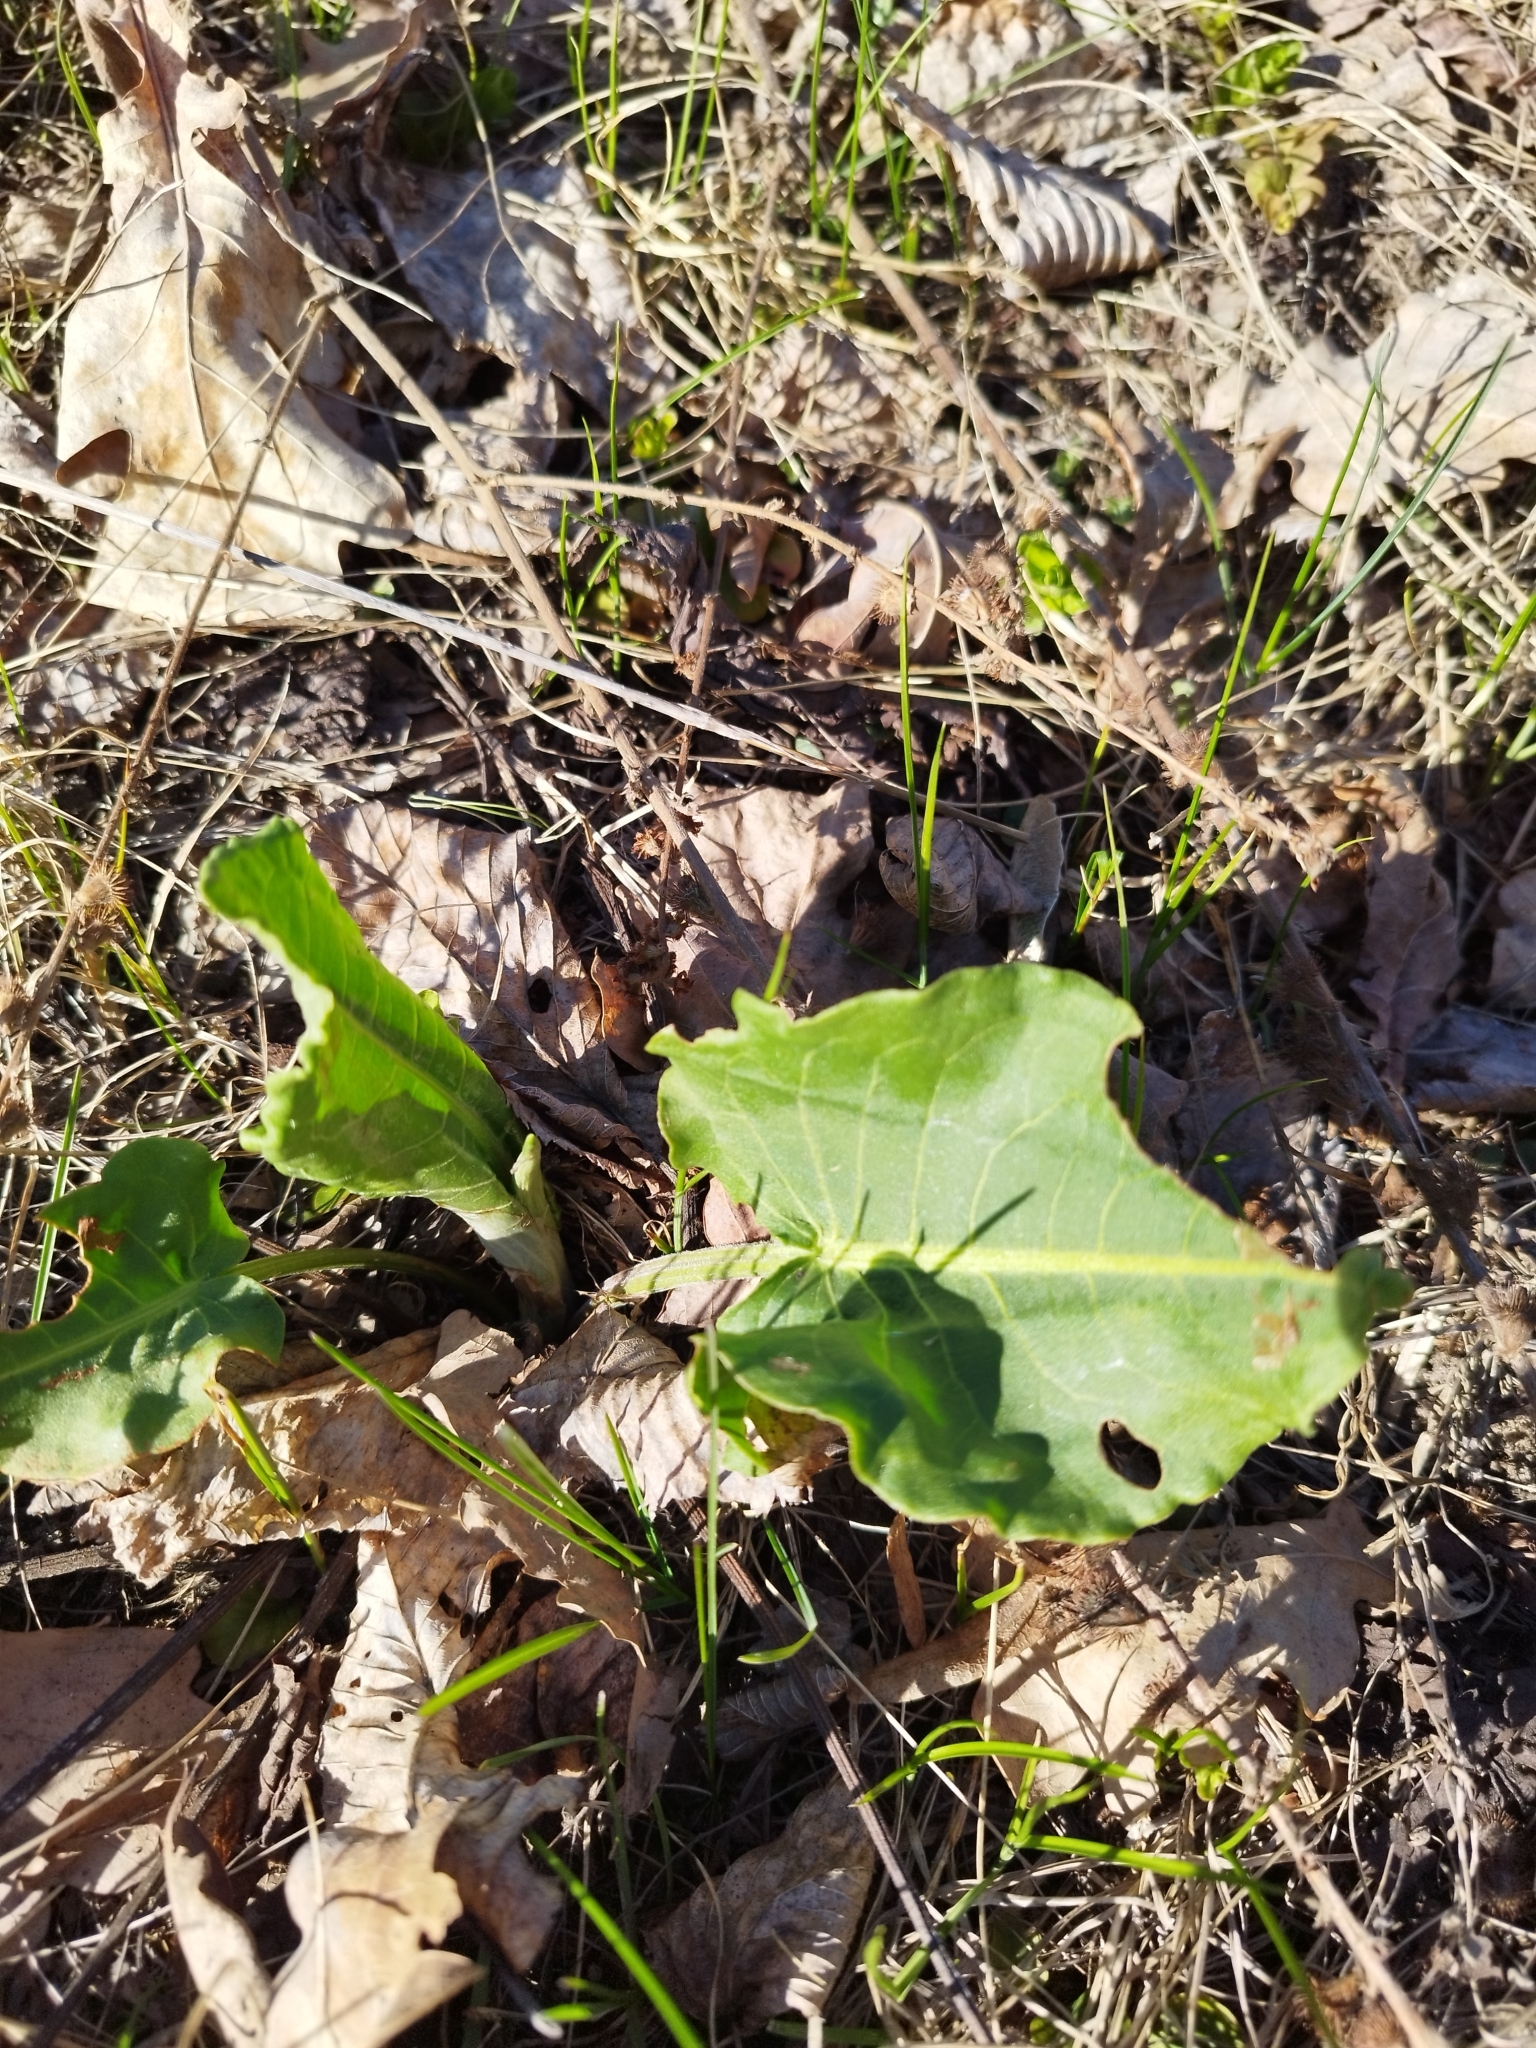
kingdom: Plantae
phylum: Tracheophyta
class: Magnoliopsida
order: Caryophyllales
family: Polygonaceae
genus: Rumex
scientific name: Rumex confertus
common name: Russian dock
